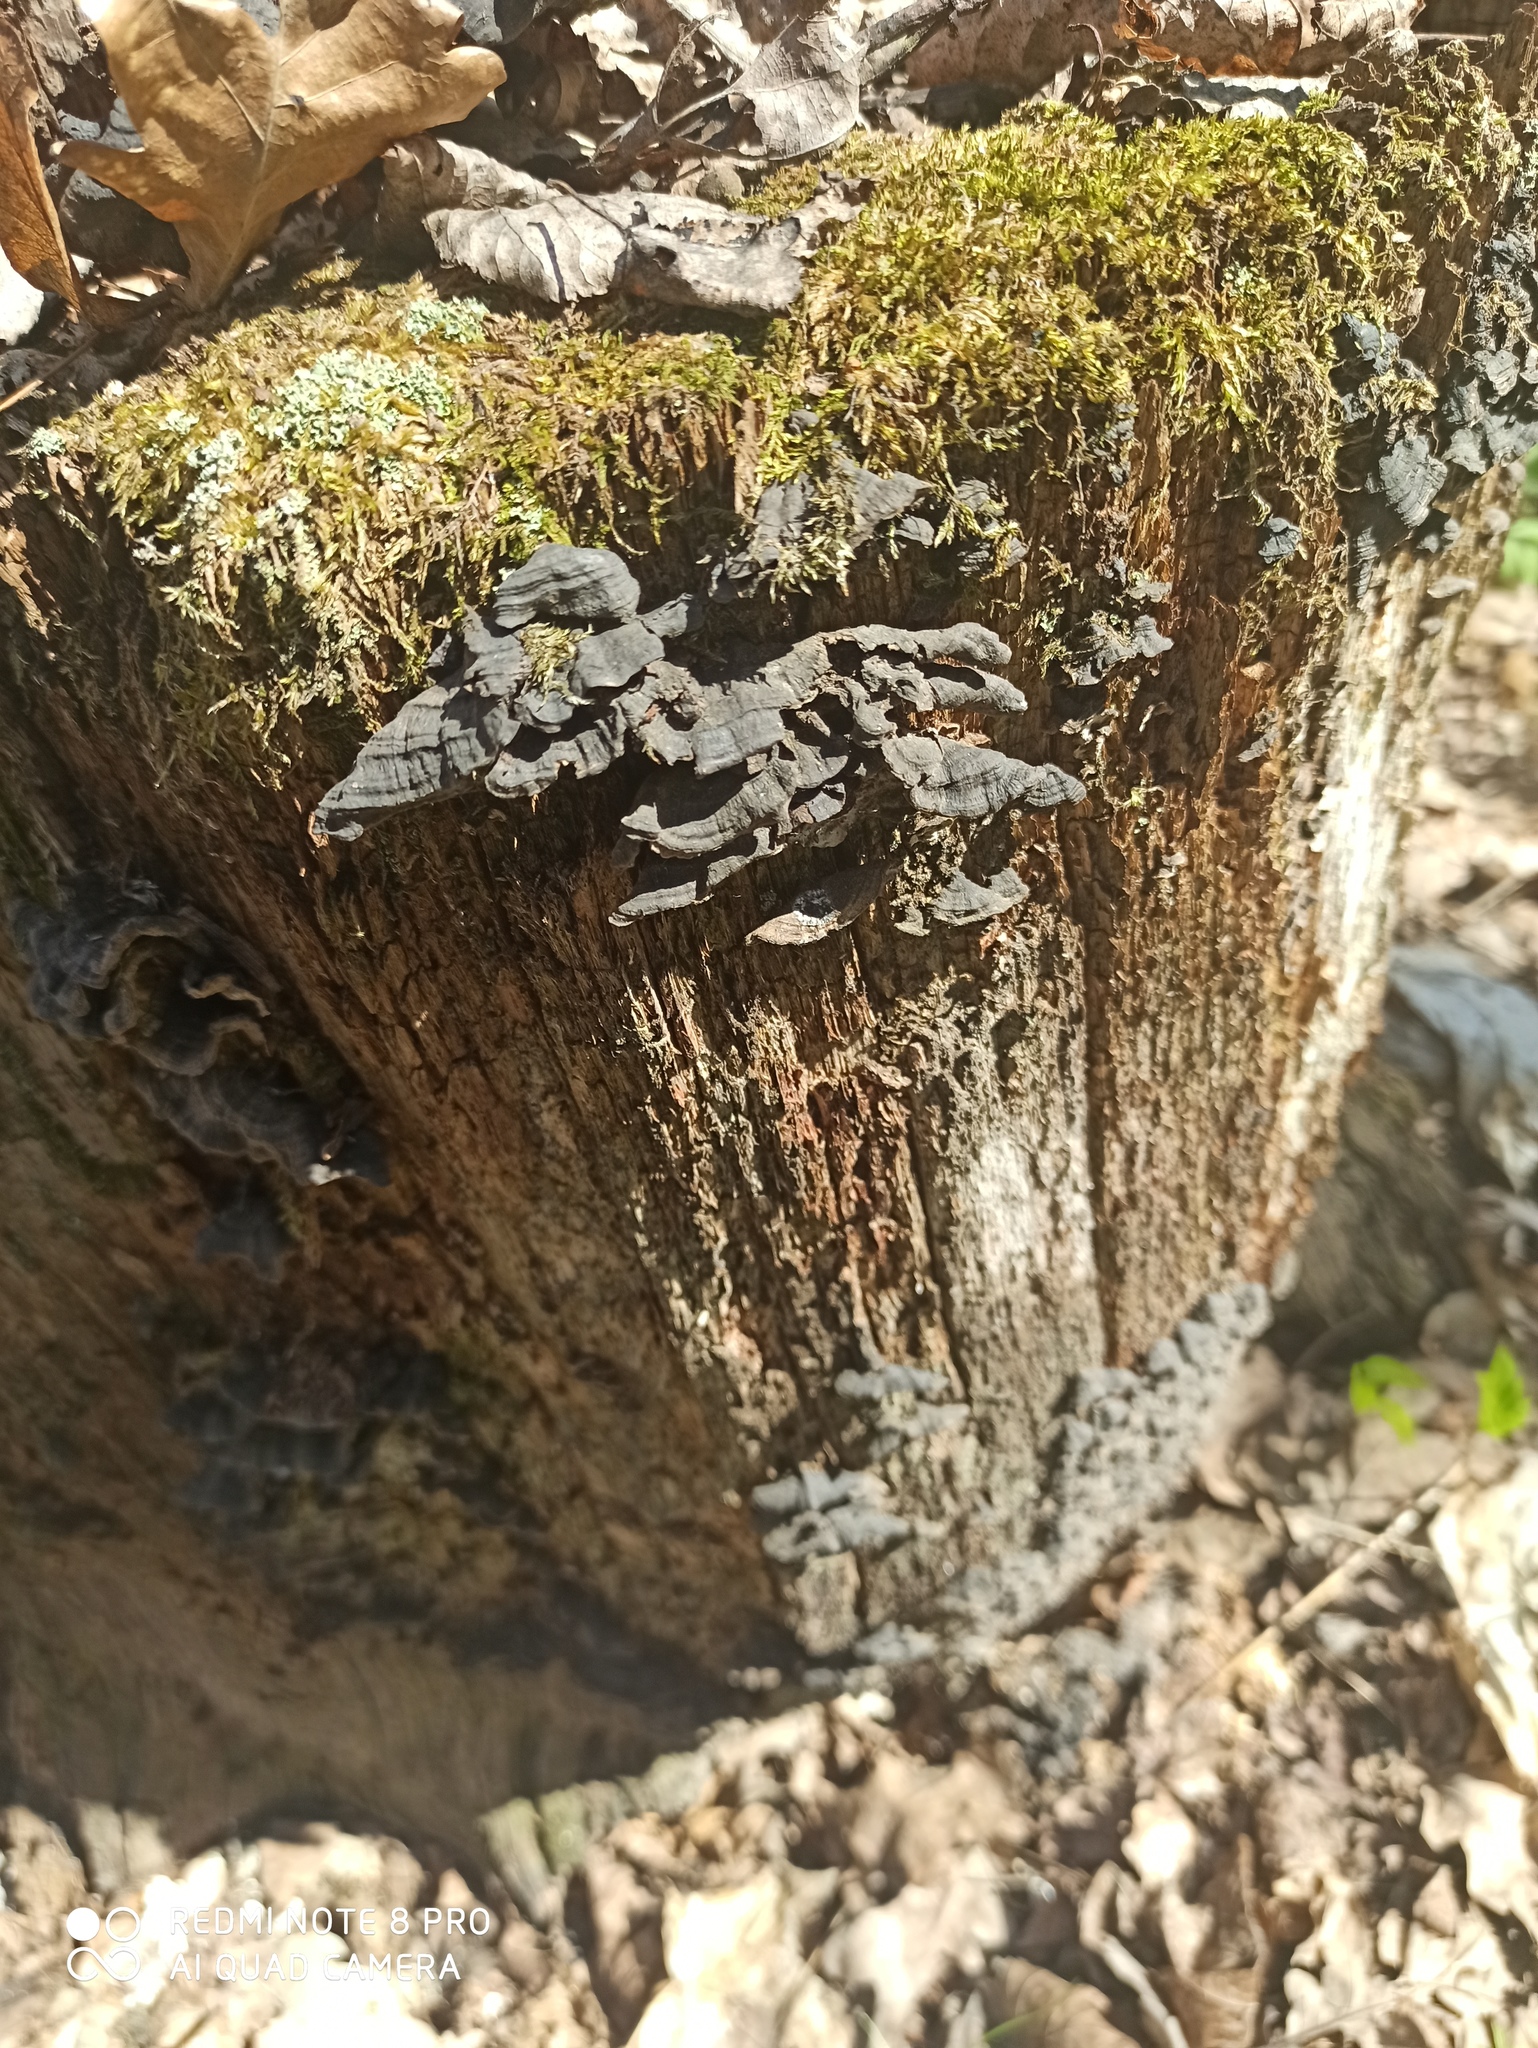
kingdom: Fungi
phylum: Basidiomycota
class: Agaricomycetes
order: Hymenochaetales
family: Hymenochaetaceae
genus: Hymenochaete
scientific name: Hymenochaete rubiginosa
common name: Oak curtain crust
